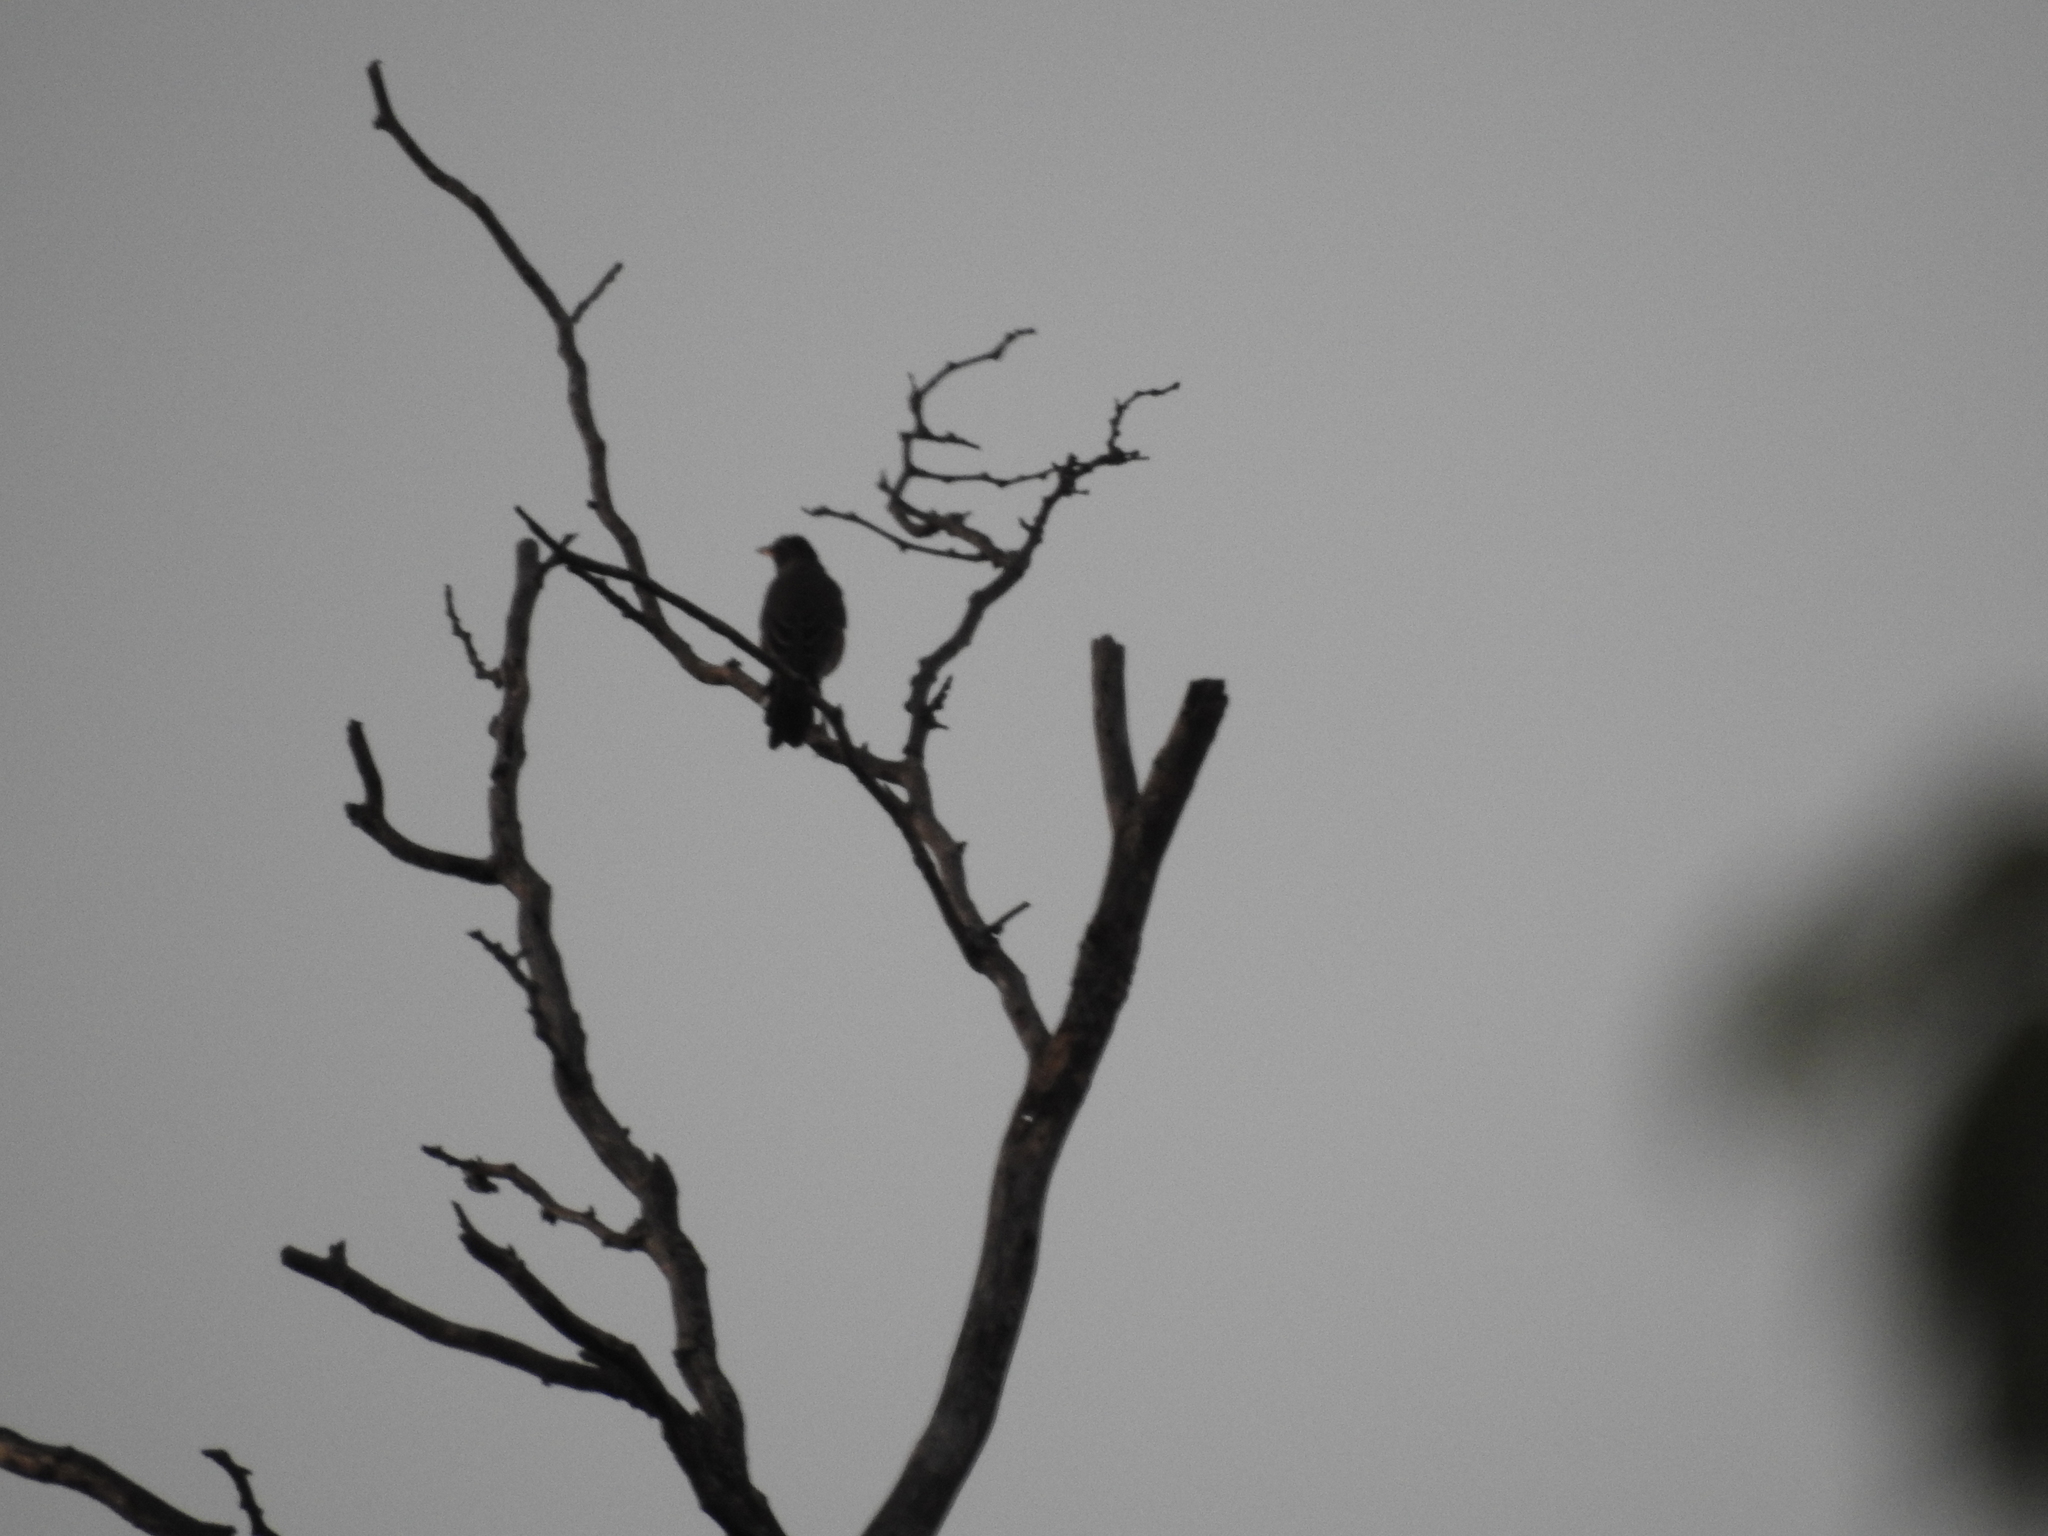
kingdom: Animalia
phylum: Chordata
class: Aves
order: Passeriformes
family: Turdidae
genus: Turdus
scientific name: Turdus migratorius
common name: American robin
